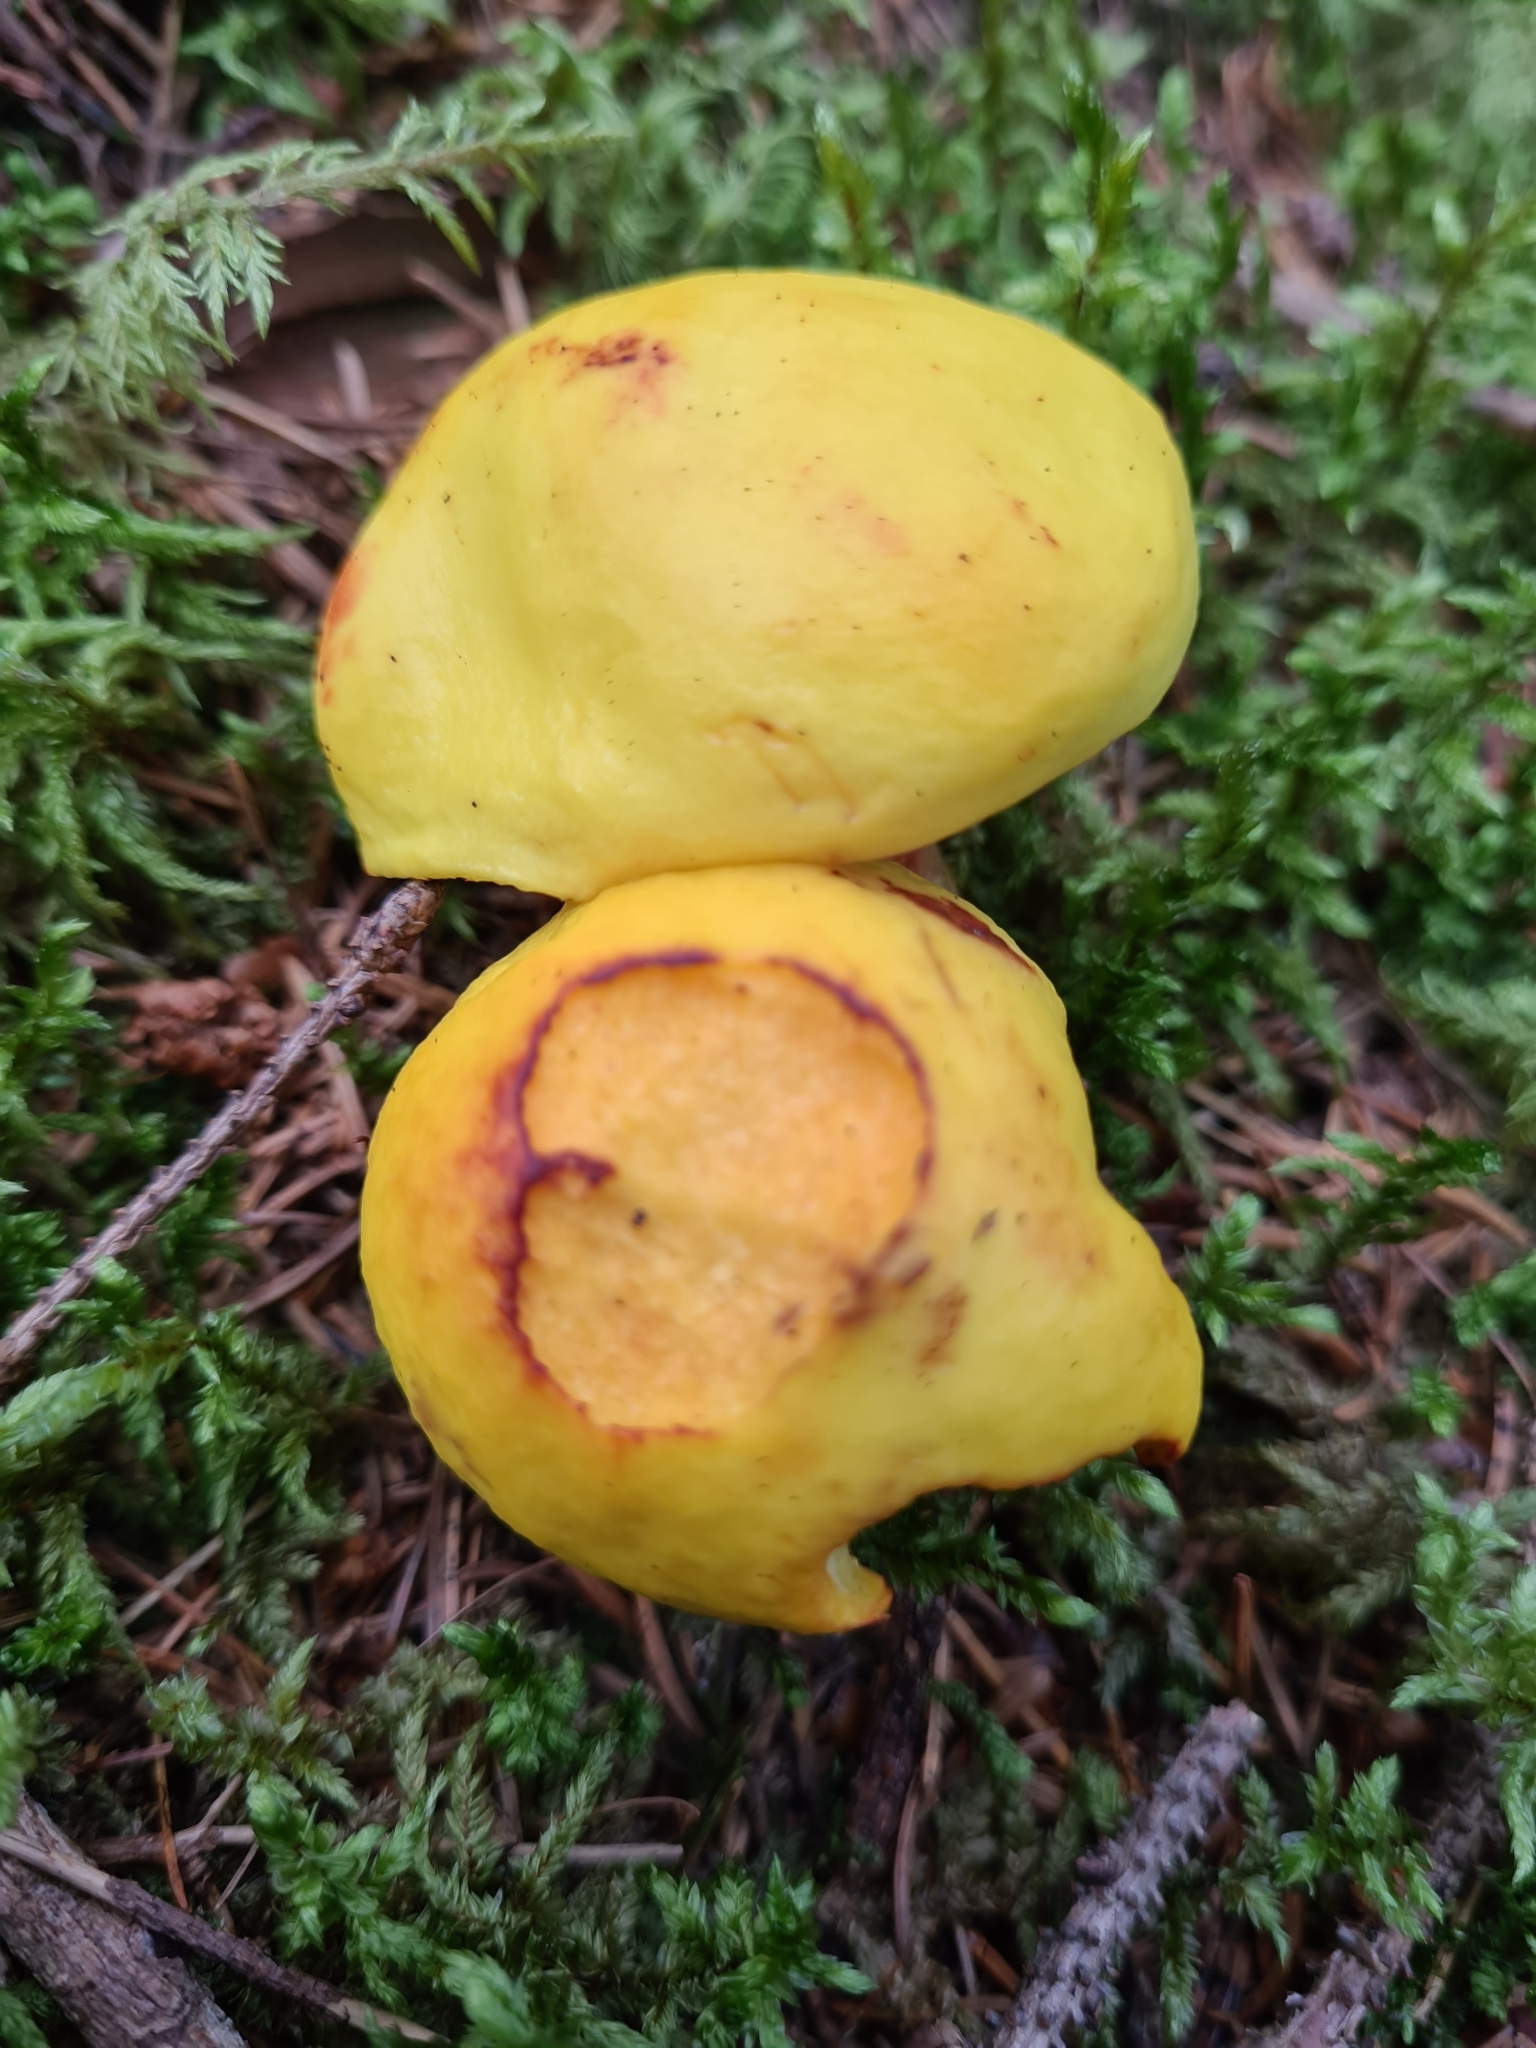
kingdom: Fungi
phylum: Basidiomycota
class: Agaricomycetes
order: Boletales
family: Suillaceae
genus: Suillus
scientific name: Suillus grevillei
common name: Larch bolete
